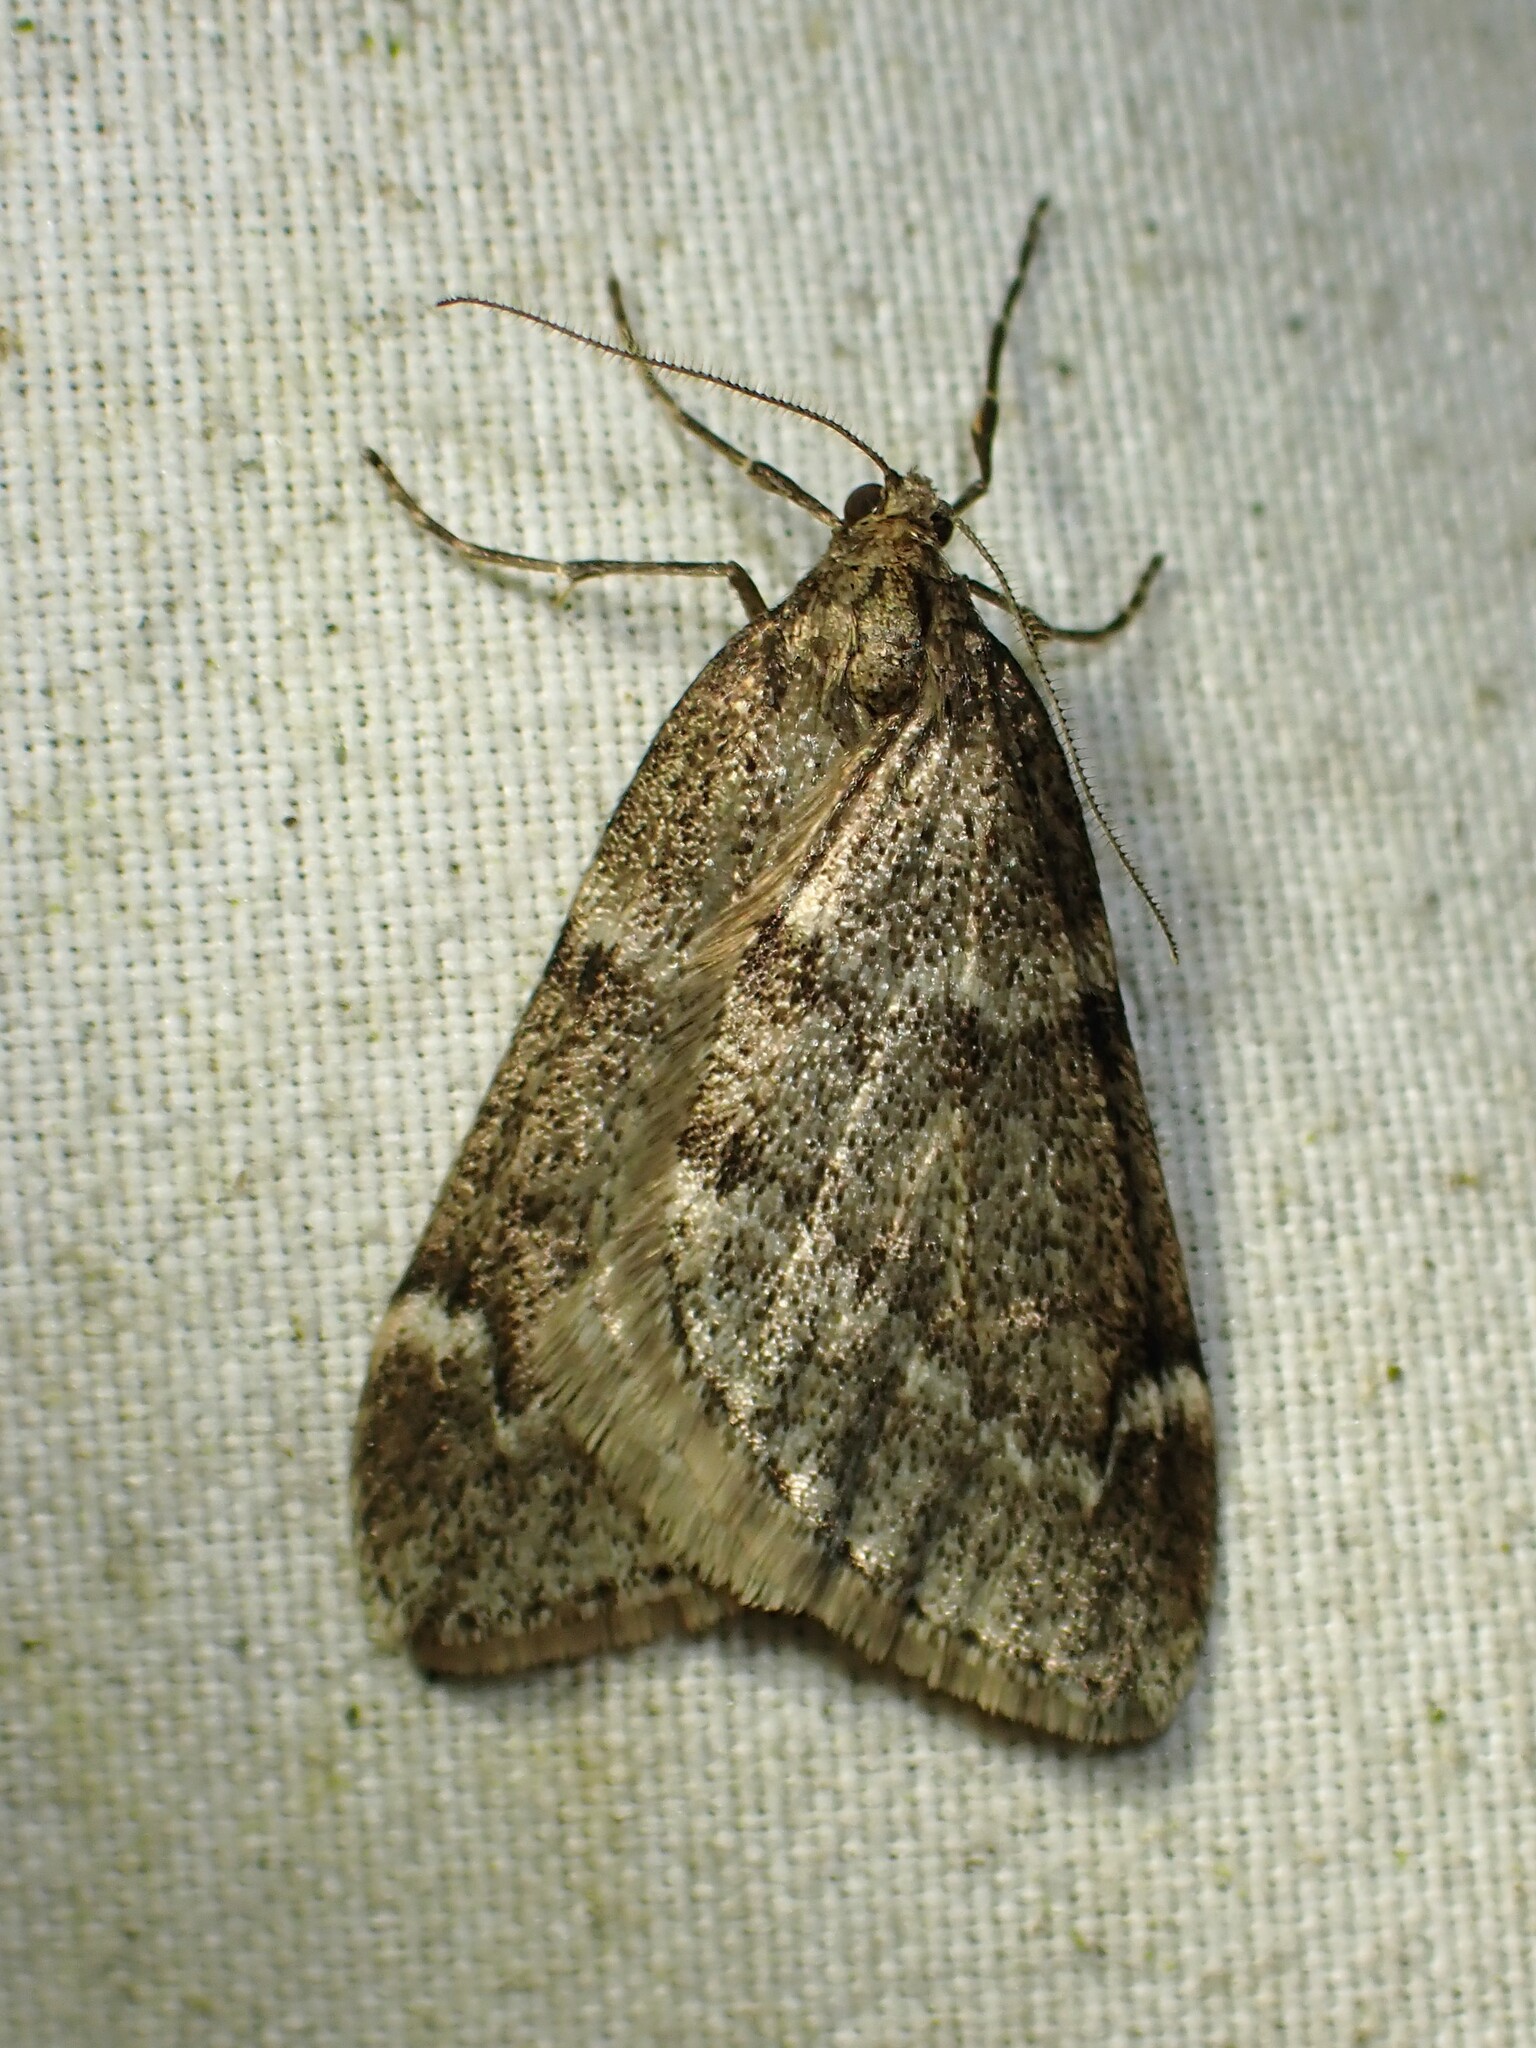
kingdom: Animalia
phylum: Arthropoda
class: Insecta
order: Lepidoptera
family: Geometridae
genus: Alsophila
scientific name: Alsophila pometaria
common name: Fall cankerworm
